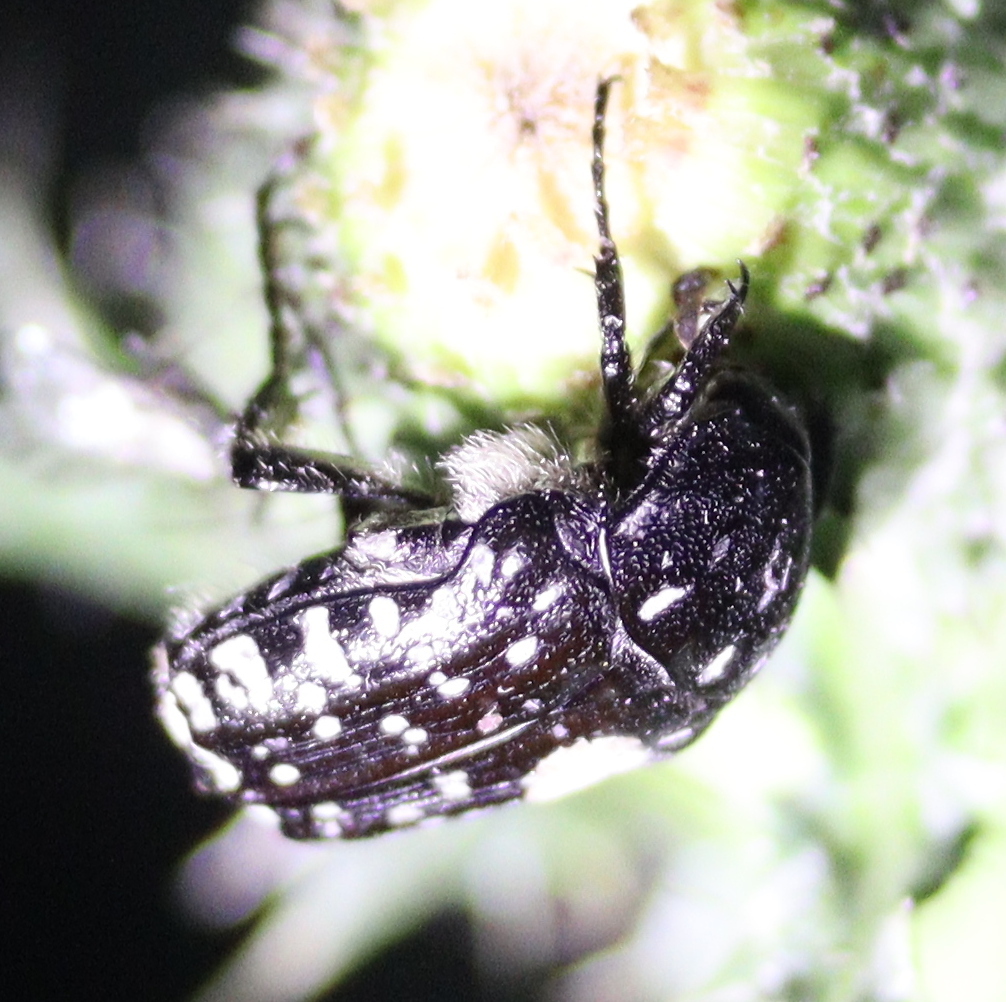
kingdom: Animalia
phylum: Arthropoda
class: Insecta
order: Coleoptera
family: Scarabaeidae
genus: Oxythyrea
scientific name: Oxythyrea funesta
